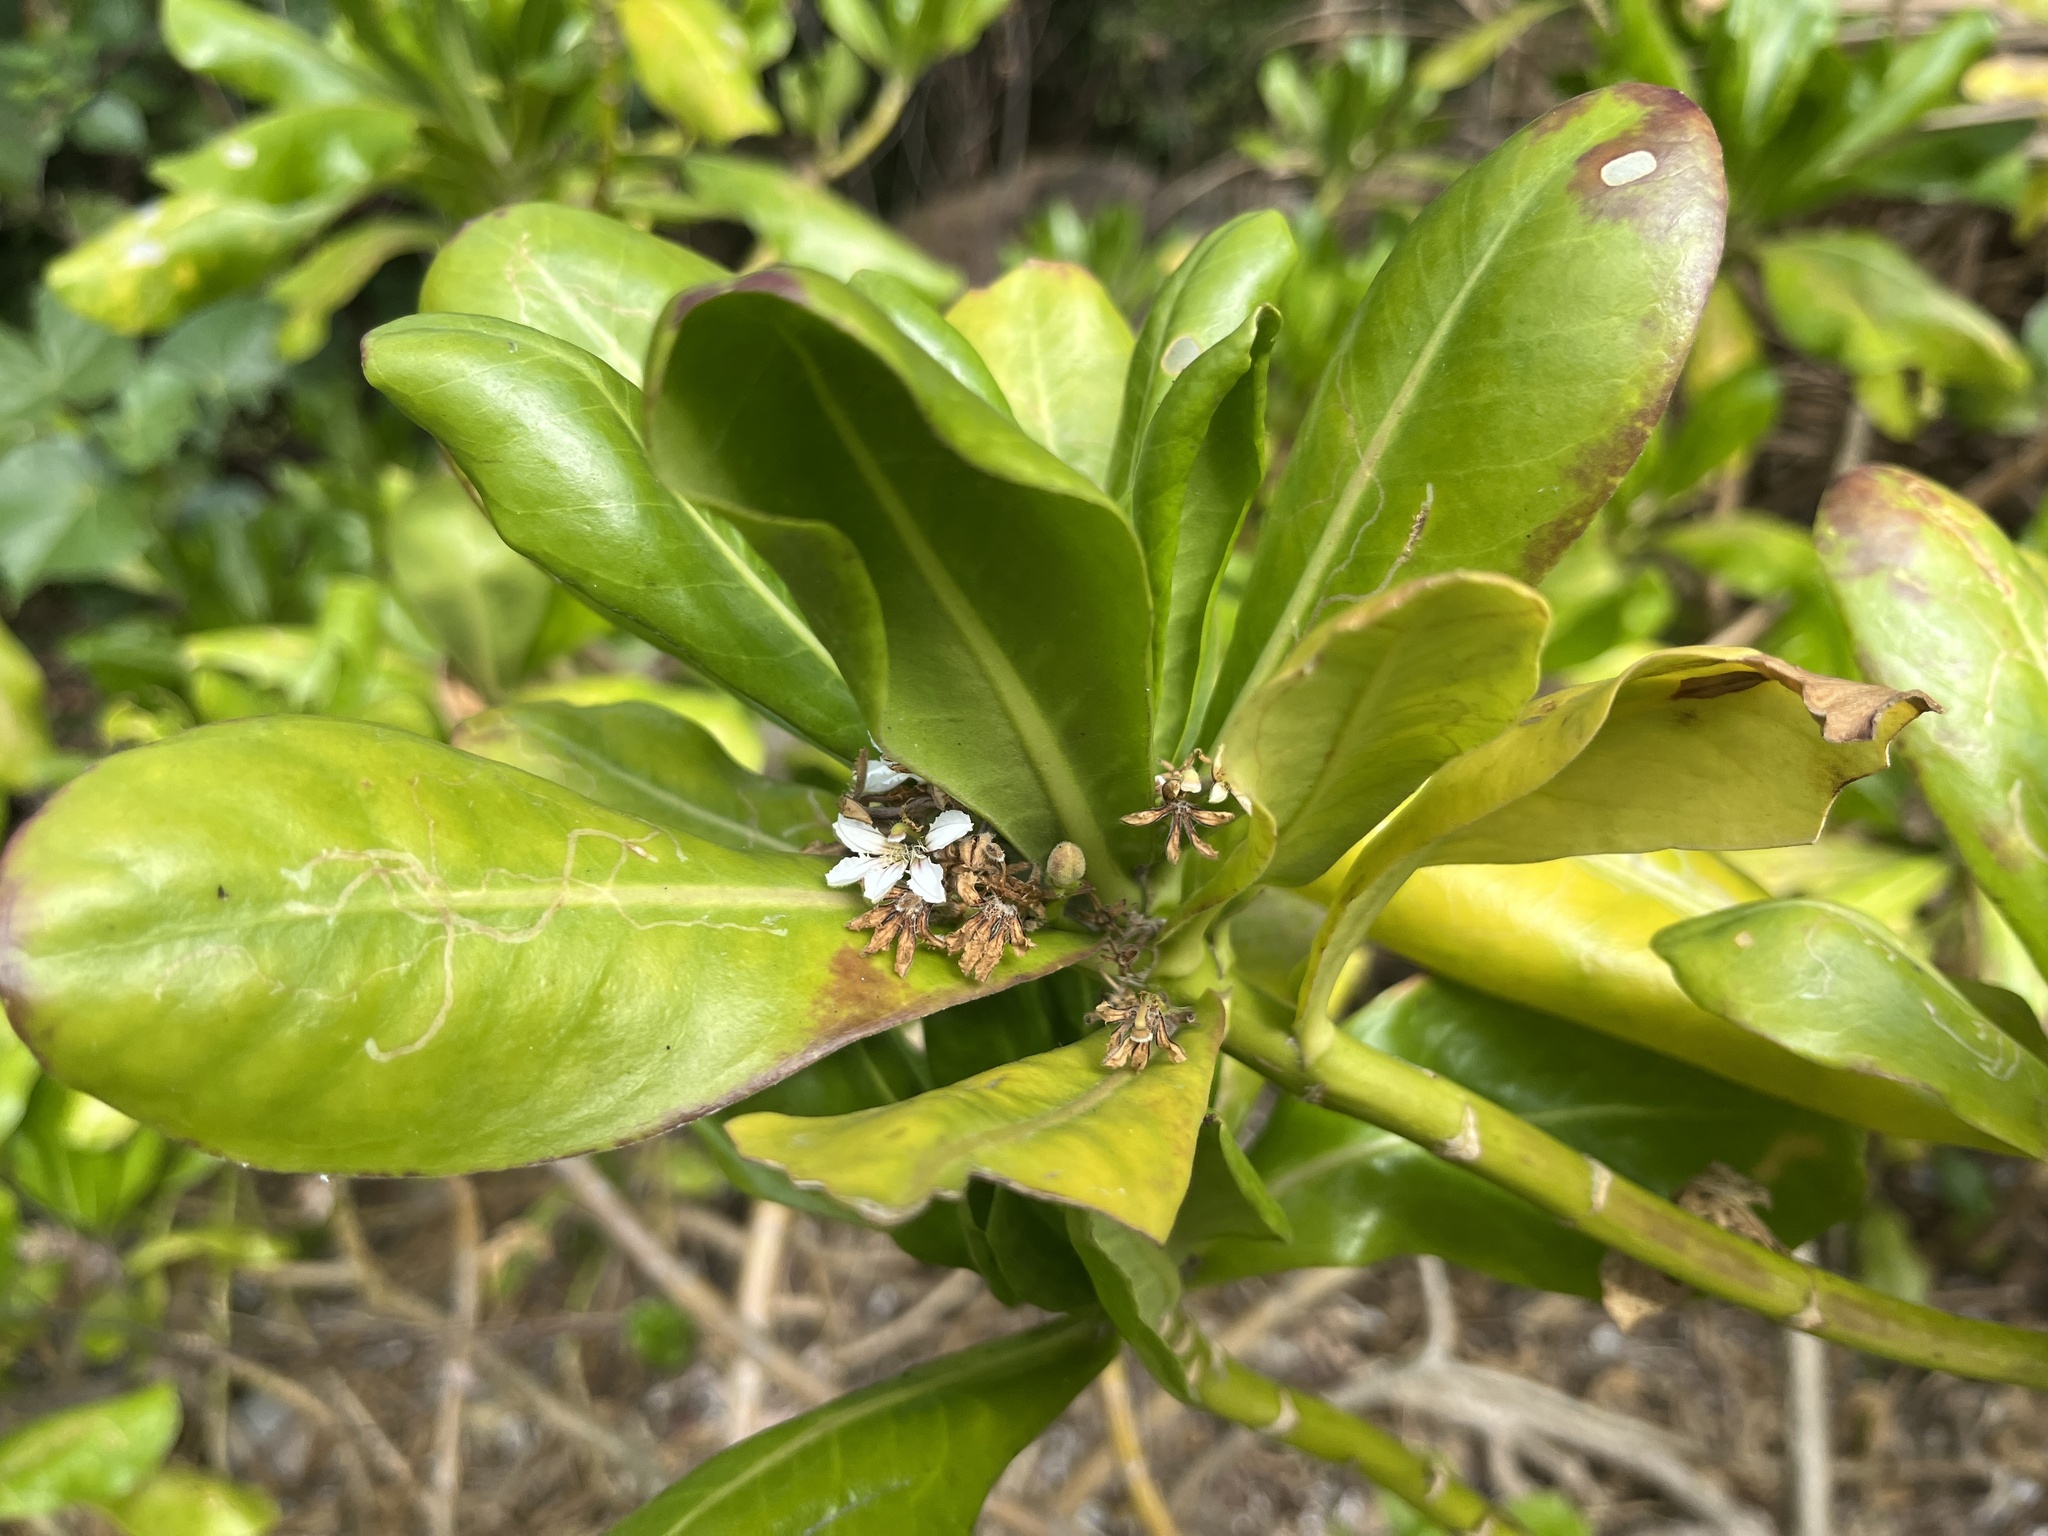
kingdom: Plantae
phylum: Tracheophyta
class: Magnoliopsida
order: Asterales
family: Goodeniaceae
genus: Scaevola
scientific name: Scaevola taccada
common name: Sea lettucetree
